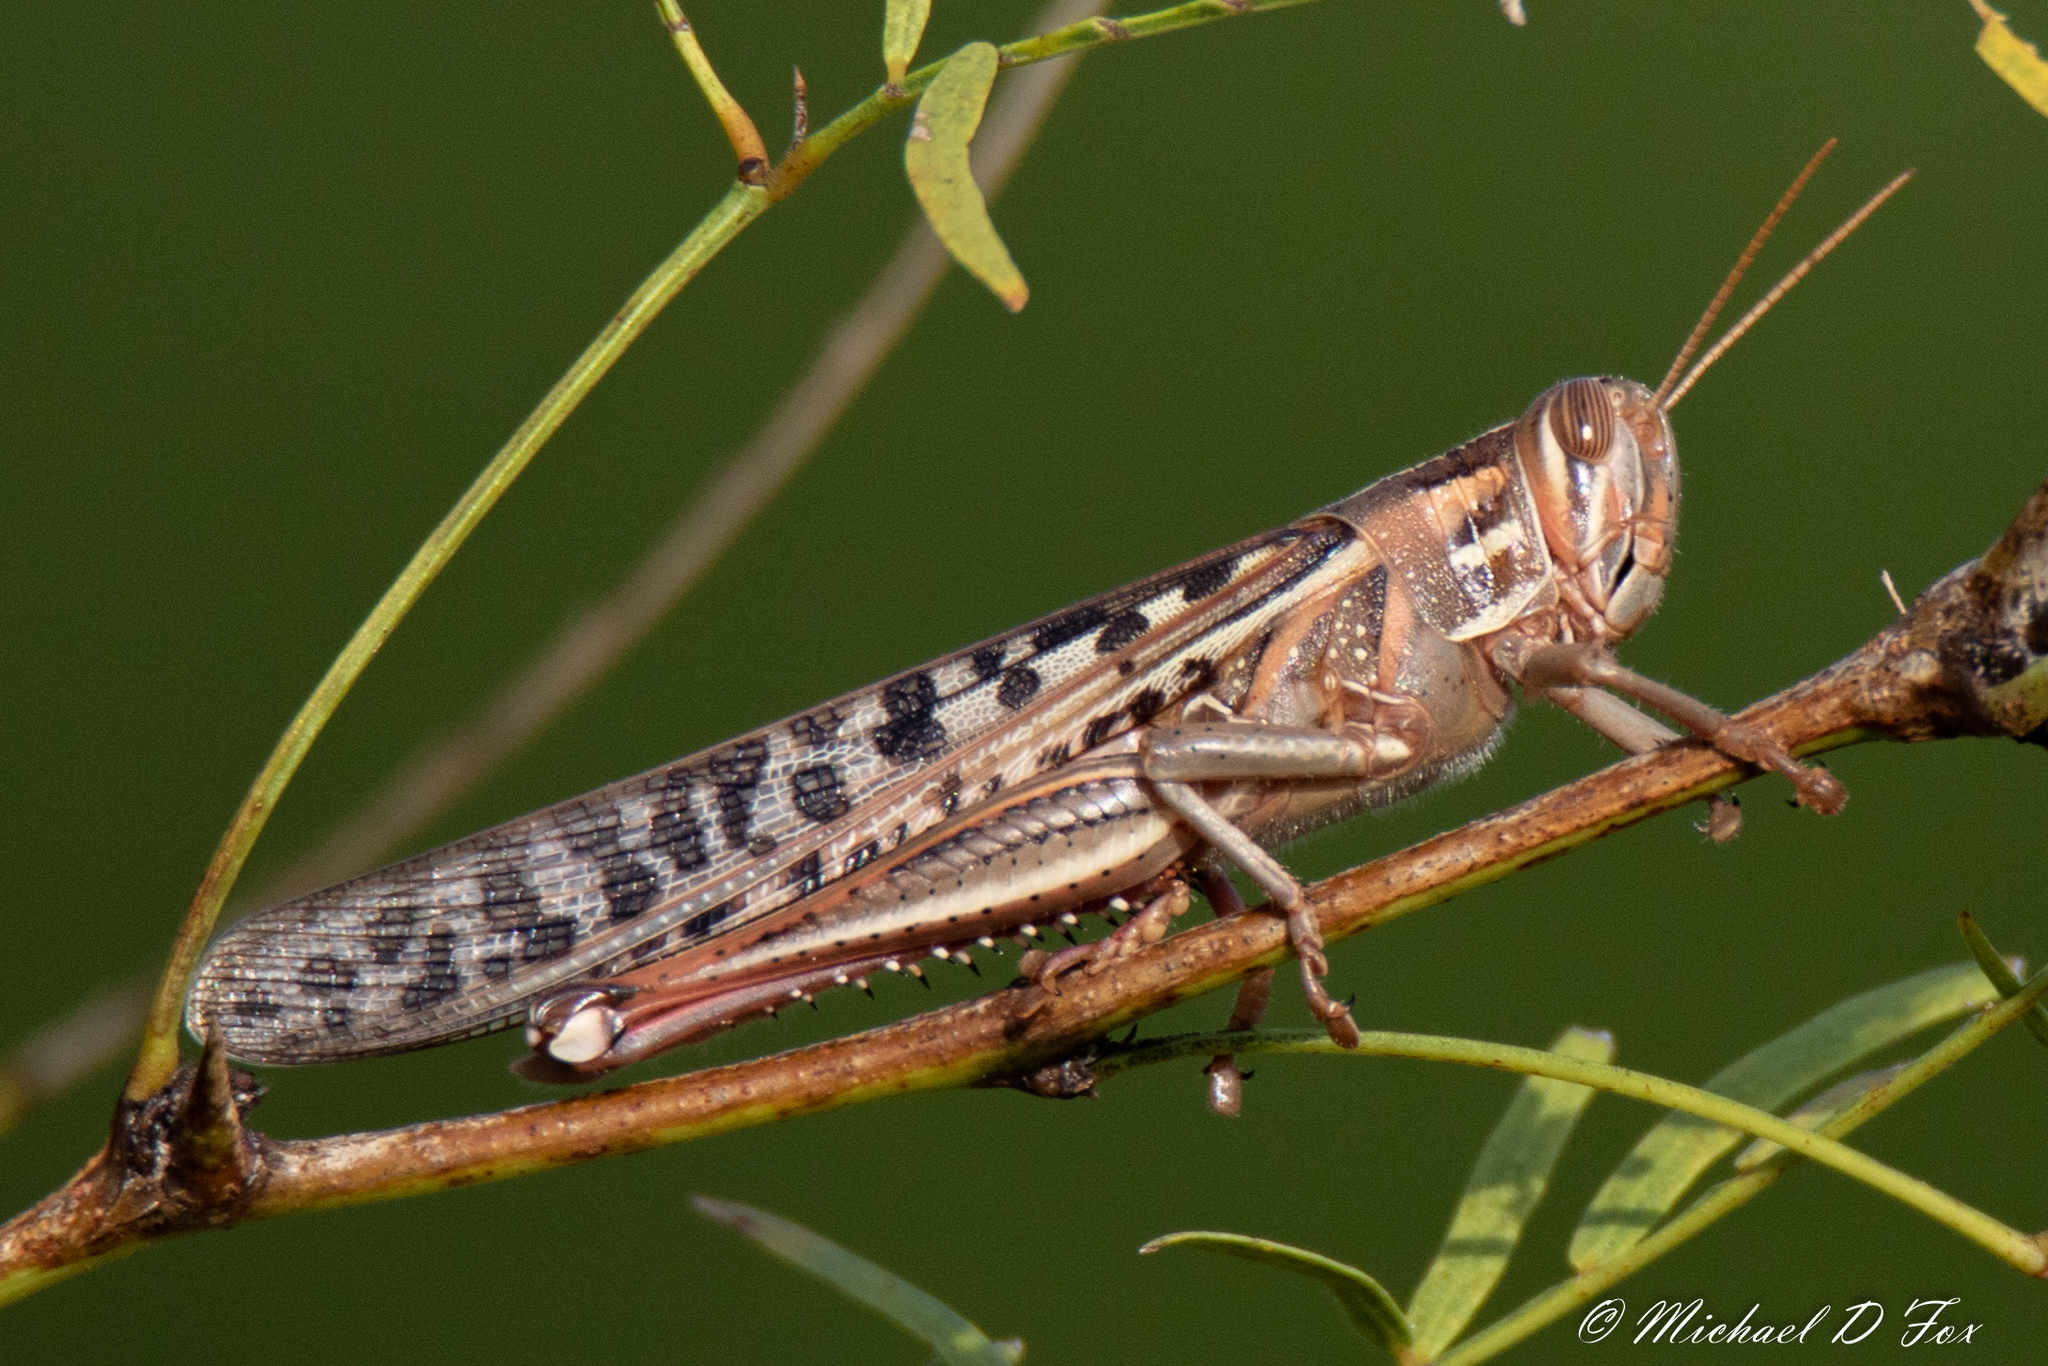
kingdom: Animalia
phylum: Arthropoda
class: Insecta
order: Orthoptera
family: Acrididae
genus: Schistocerca
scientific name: Schistocerca americana
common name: American bird locust
